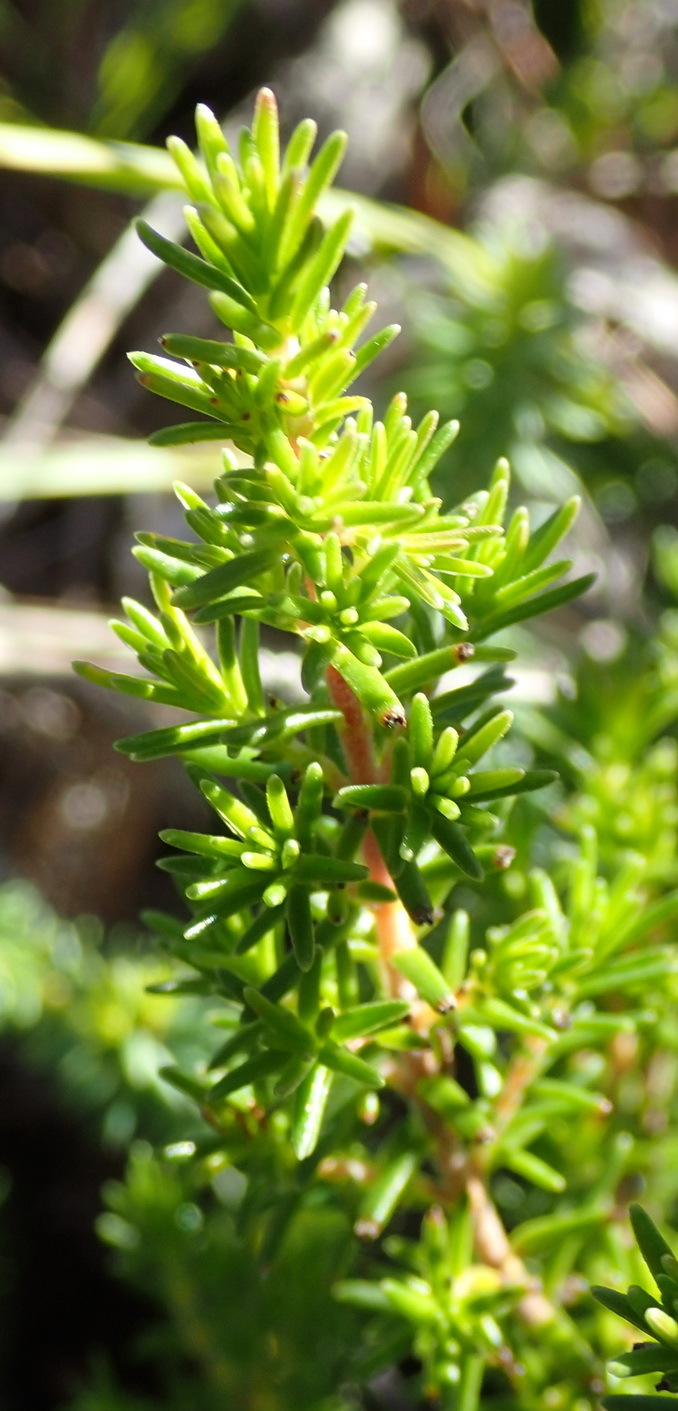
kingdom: Plantae
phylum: Tracheophyta
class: Magnoliopsida
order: Ericales
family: Ericaceae
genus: Erica
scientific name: Erica glumiflora
